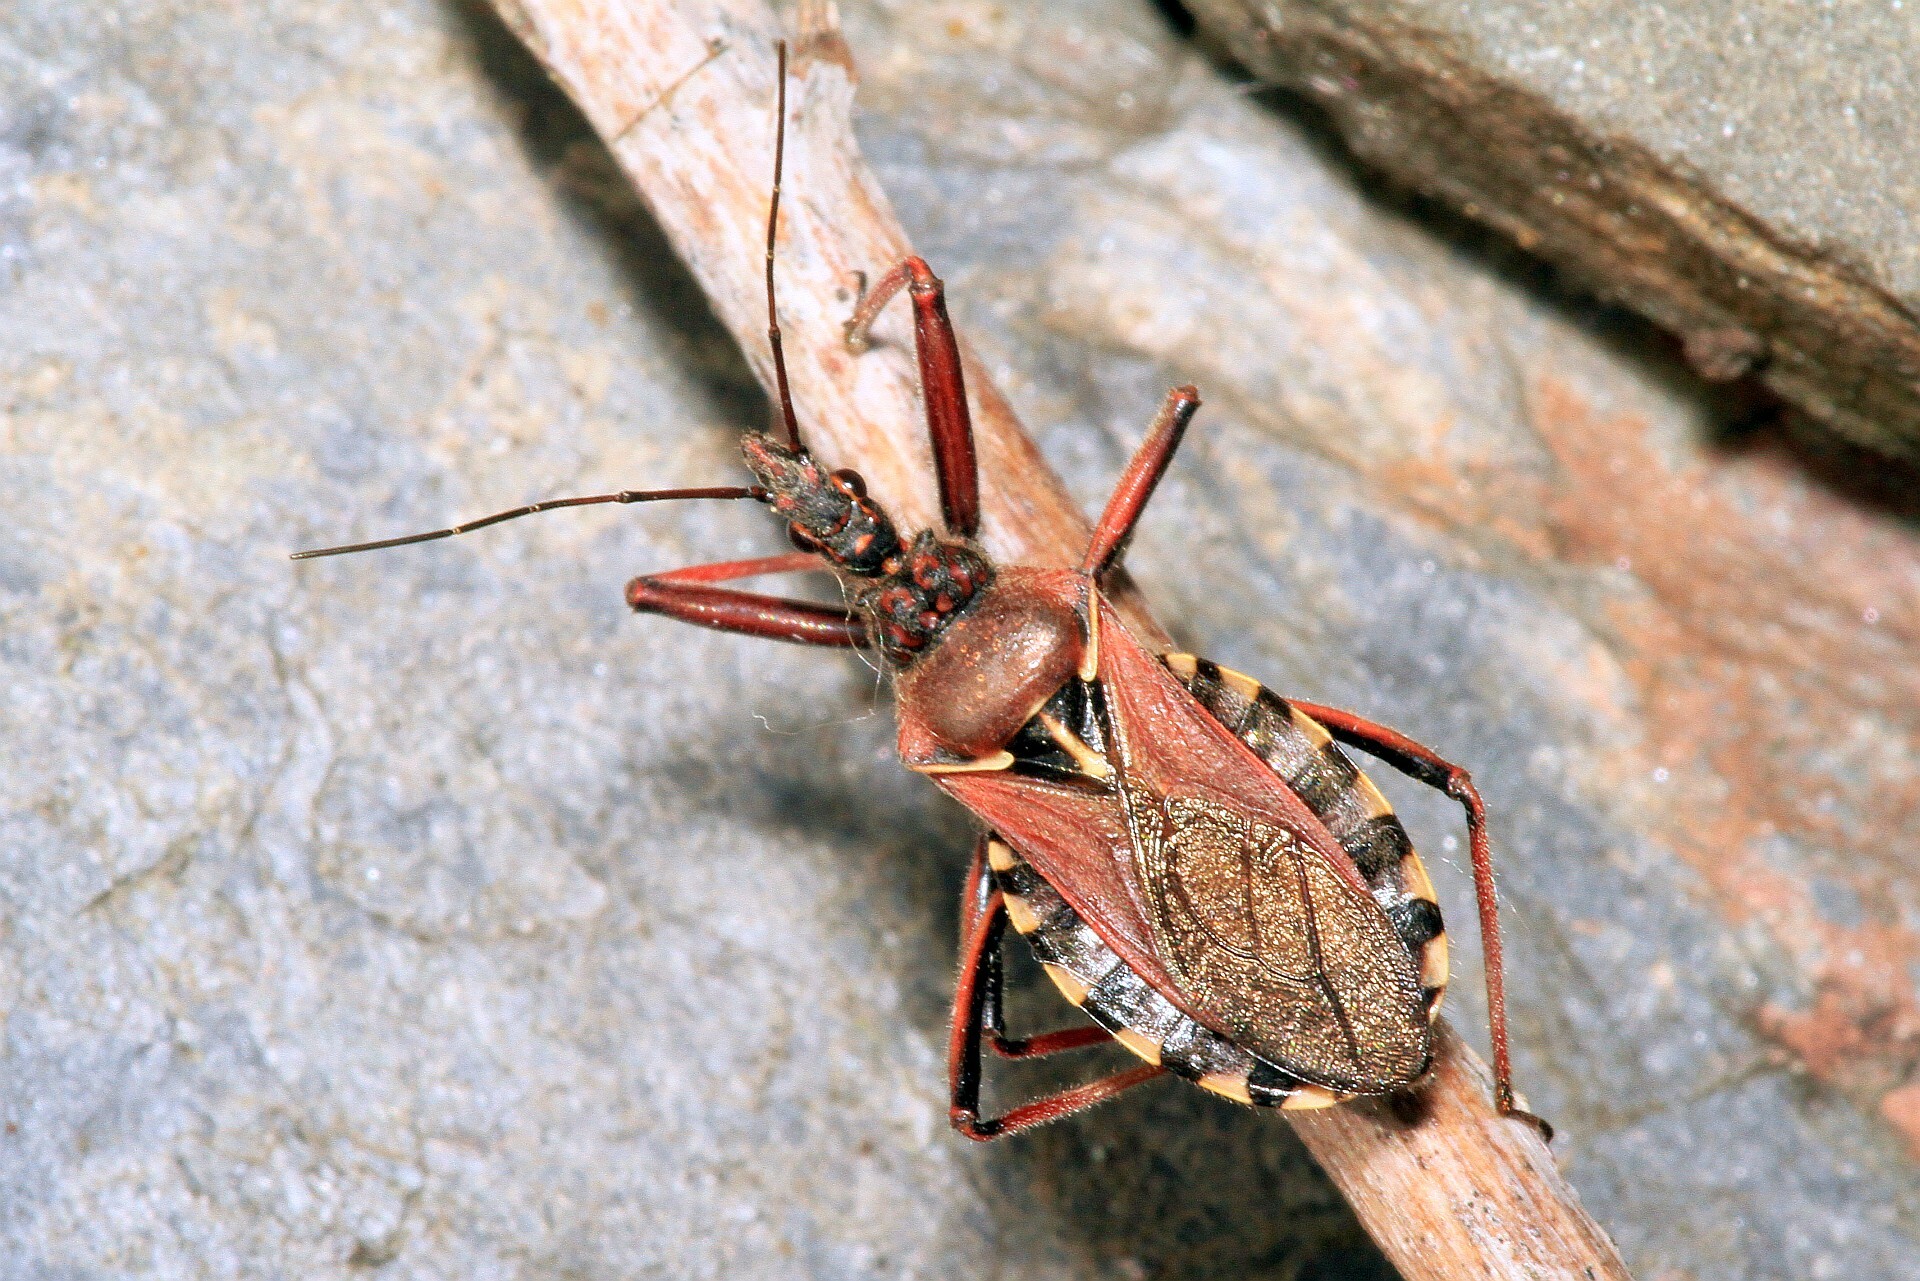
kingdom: Animalia
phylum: Arthropoda
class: Insecta
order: Hemiptera
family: Reduviidae
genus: Rhynocoris
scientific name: Rhynocoris erythropus
